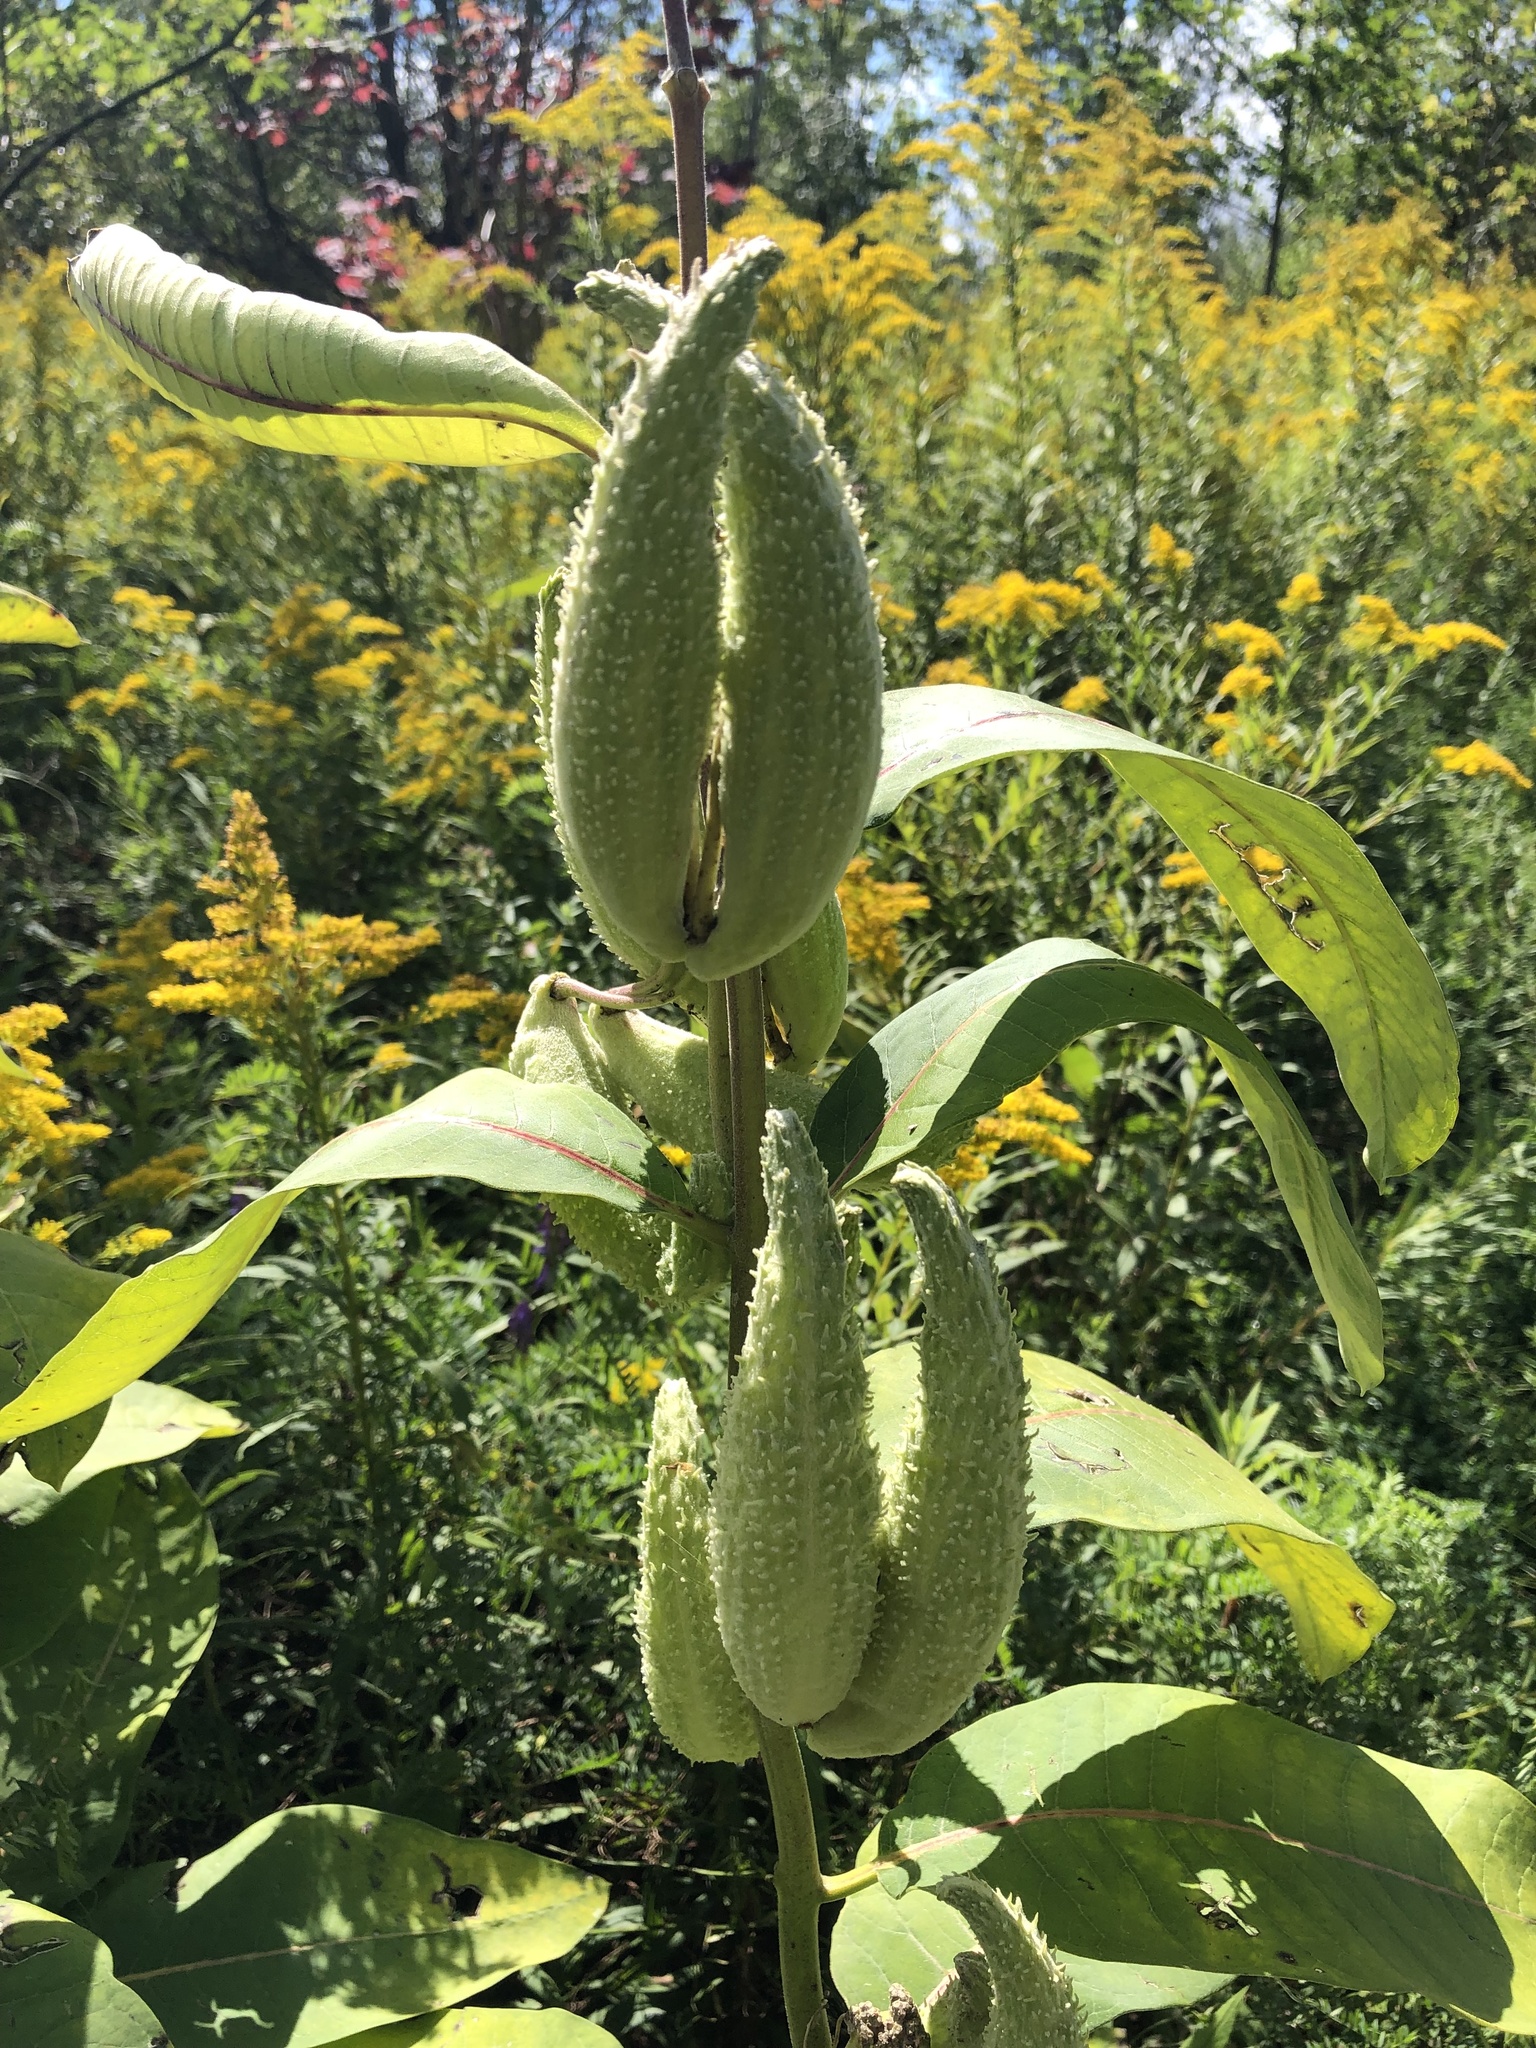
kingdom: Plantae
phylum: Tracheophyta
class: Magnoliopsida
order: Gentianales
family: Apocynaceae
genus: Asclepias
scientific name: Asclepias syriaca
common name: Common milkweed
